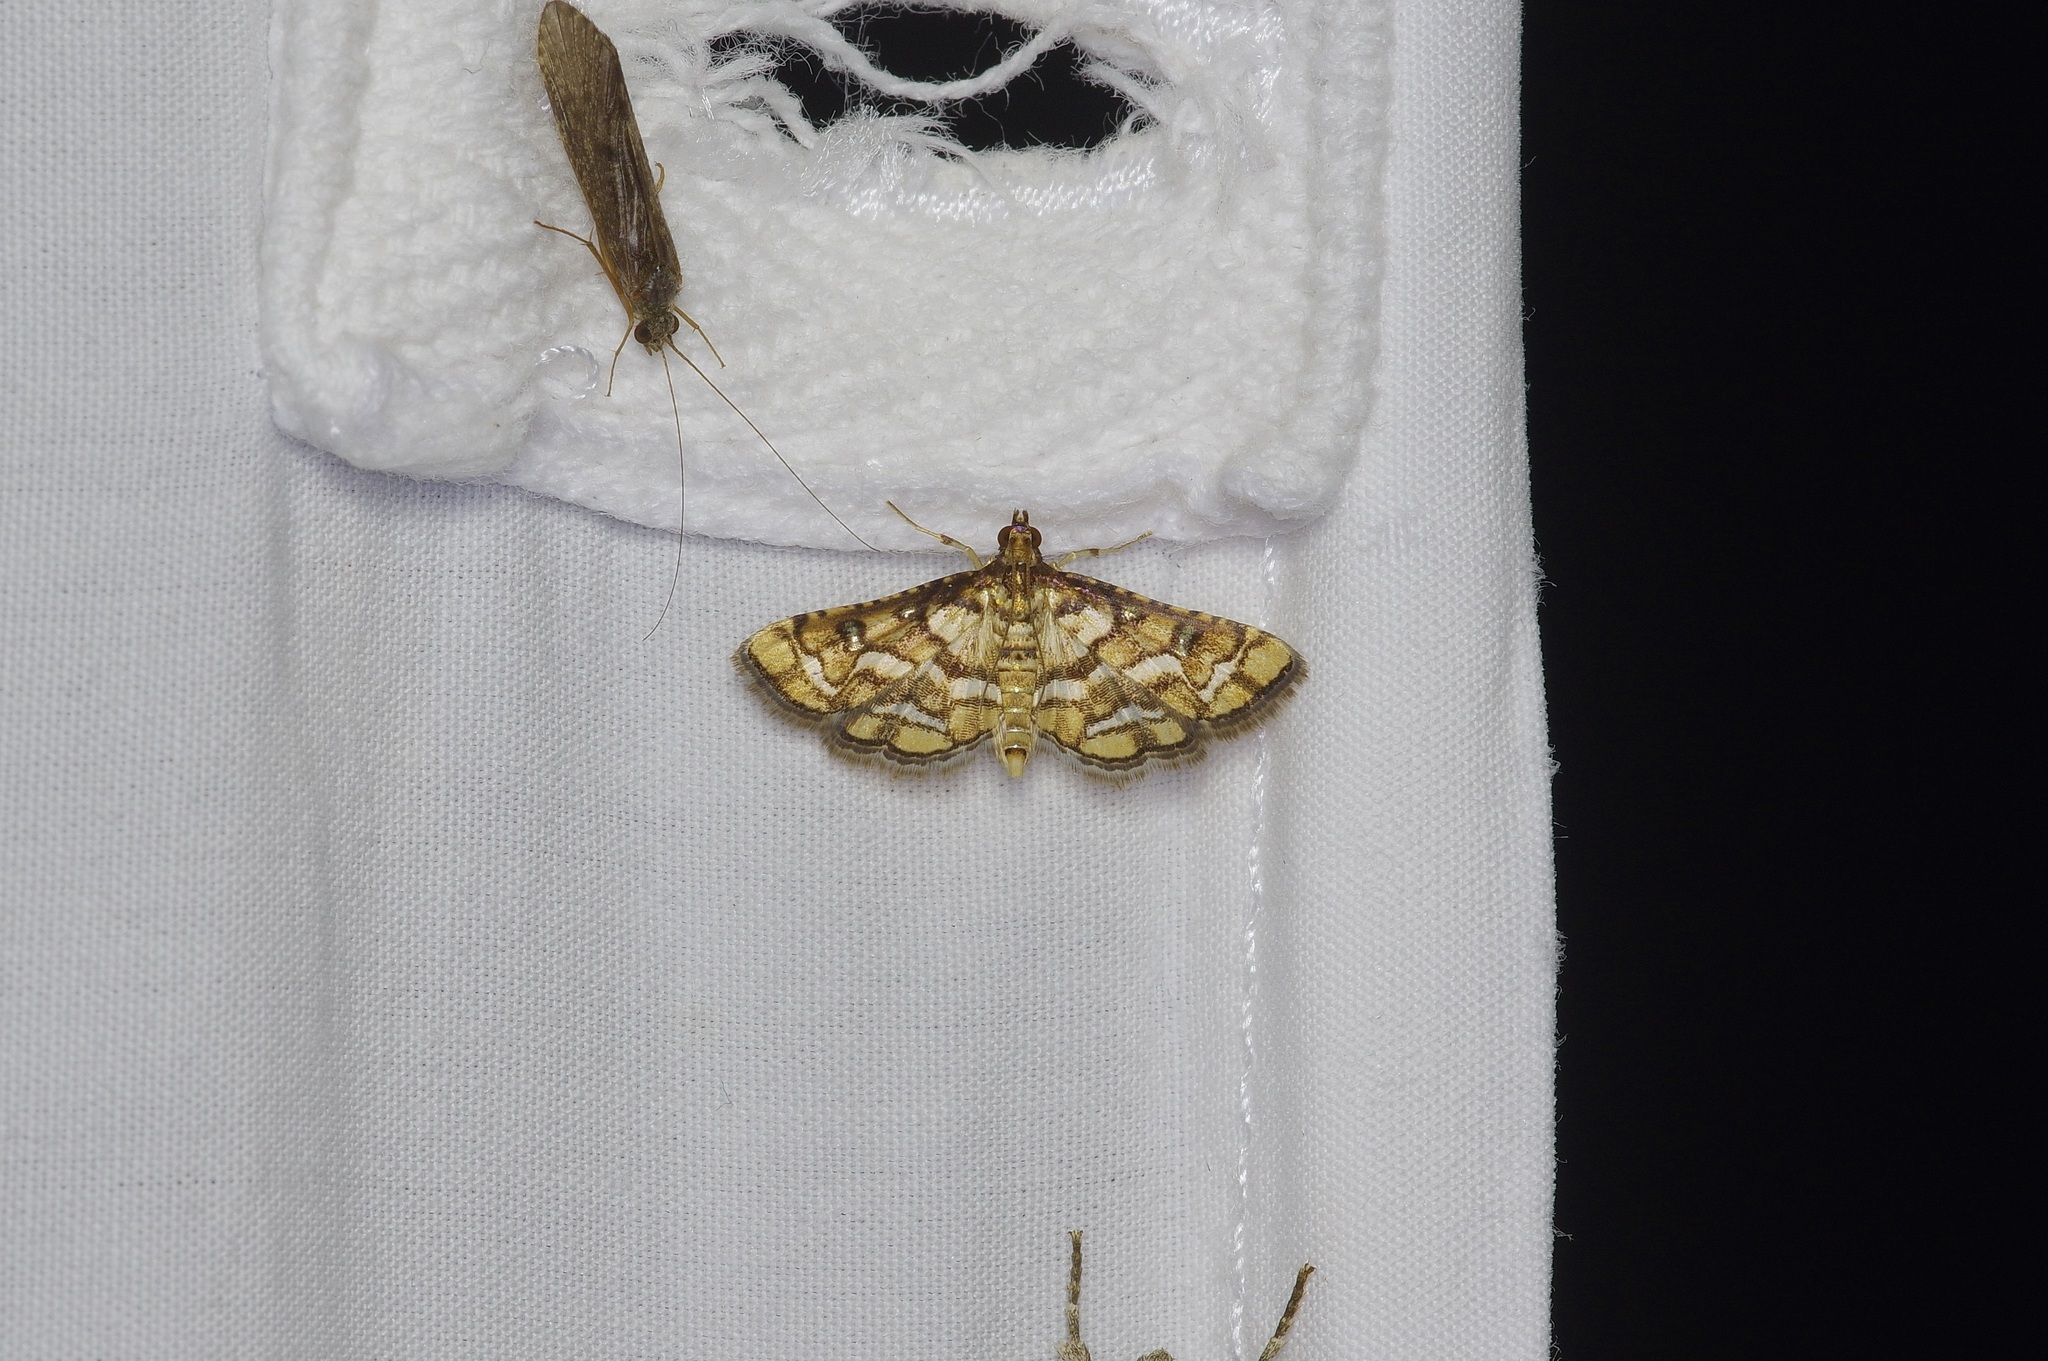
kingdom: Animalia
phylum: Arthropoda
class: Insecta
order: Lepidoptera
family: Crambidae
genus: Hileithia
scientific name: Hileithia magualis
